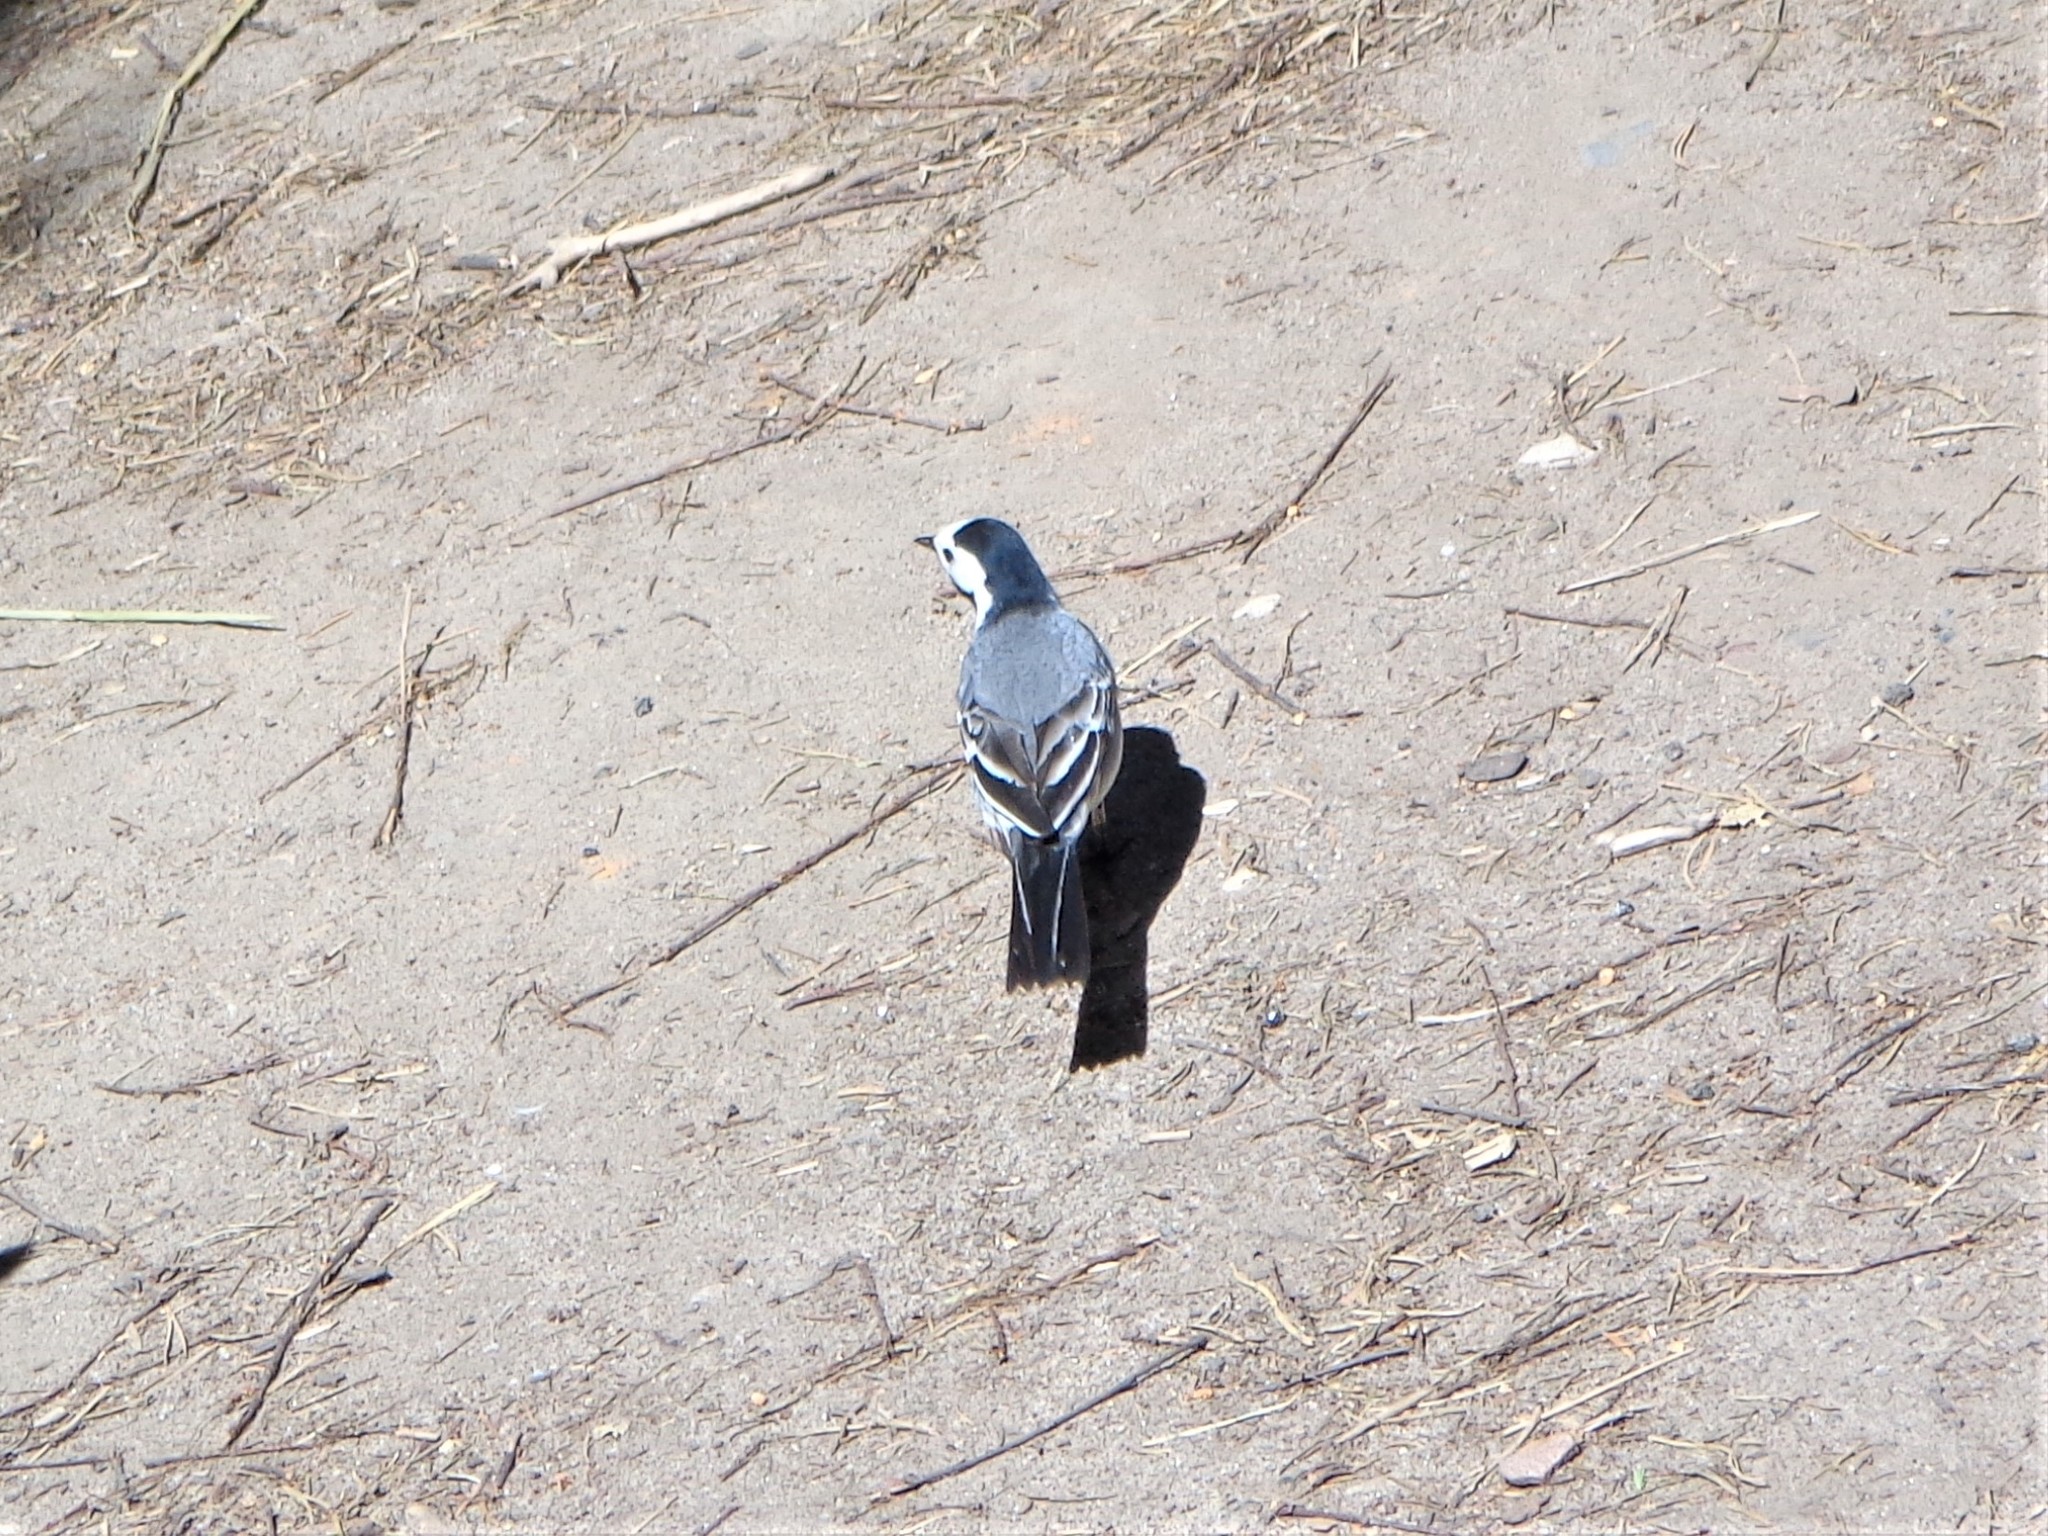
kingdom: Animalia
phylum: Chordata
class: Aves
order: Passeriformes
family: Motacillidae
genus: Motacilla
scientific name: Motacilla alba
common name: White wagtail
